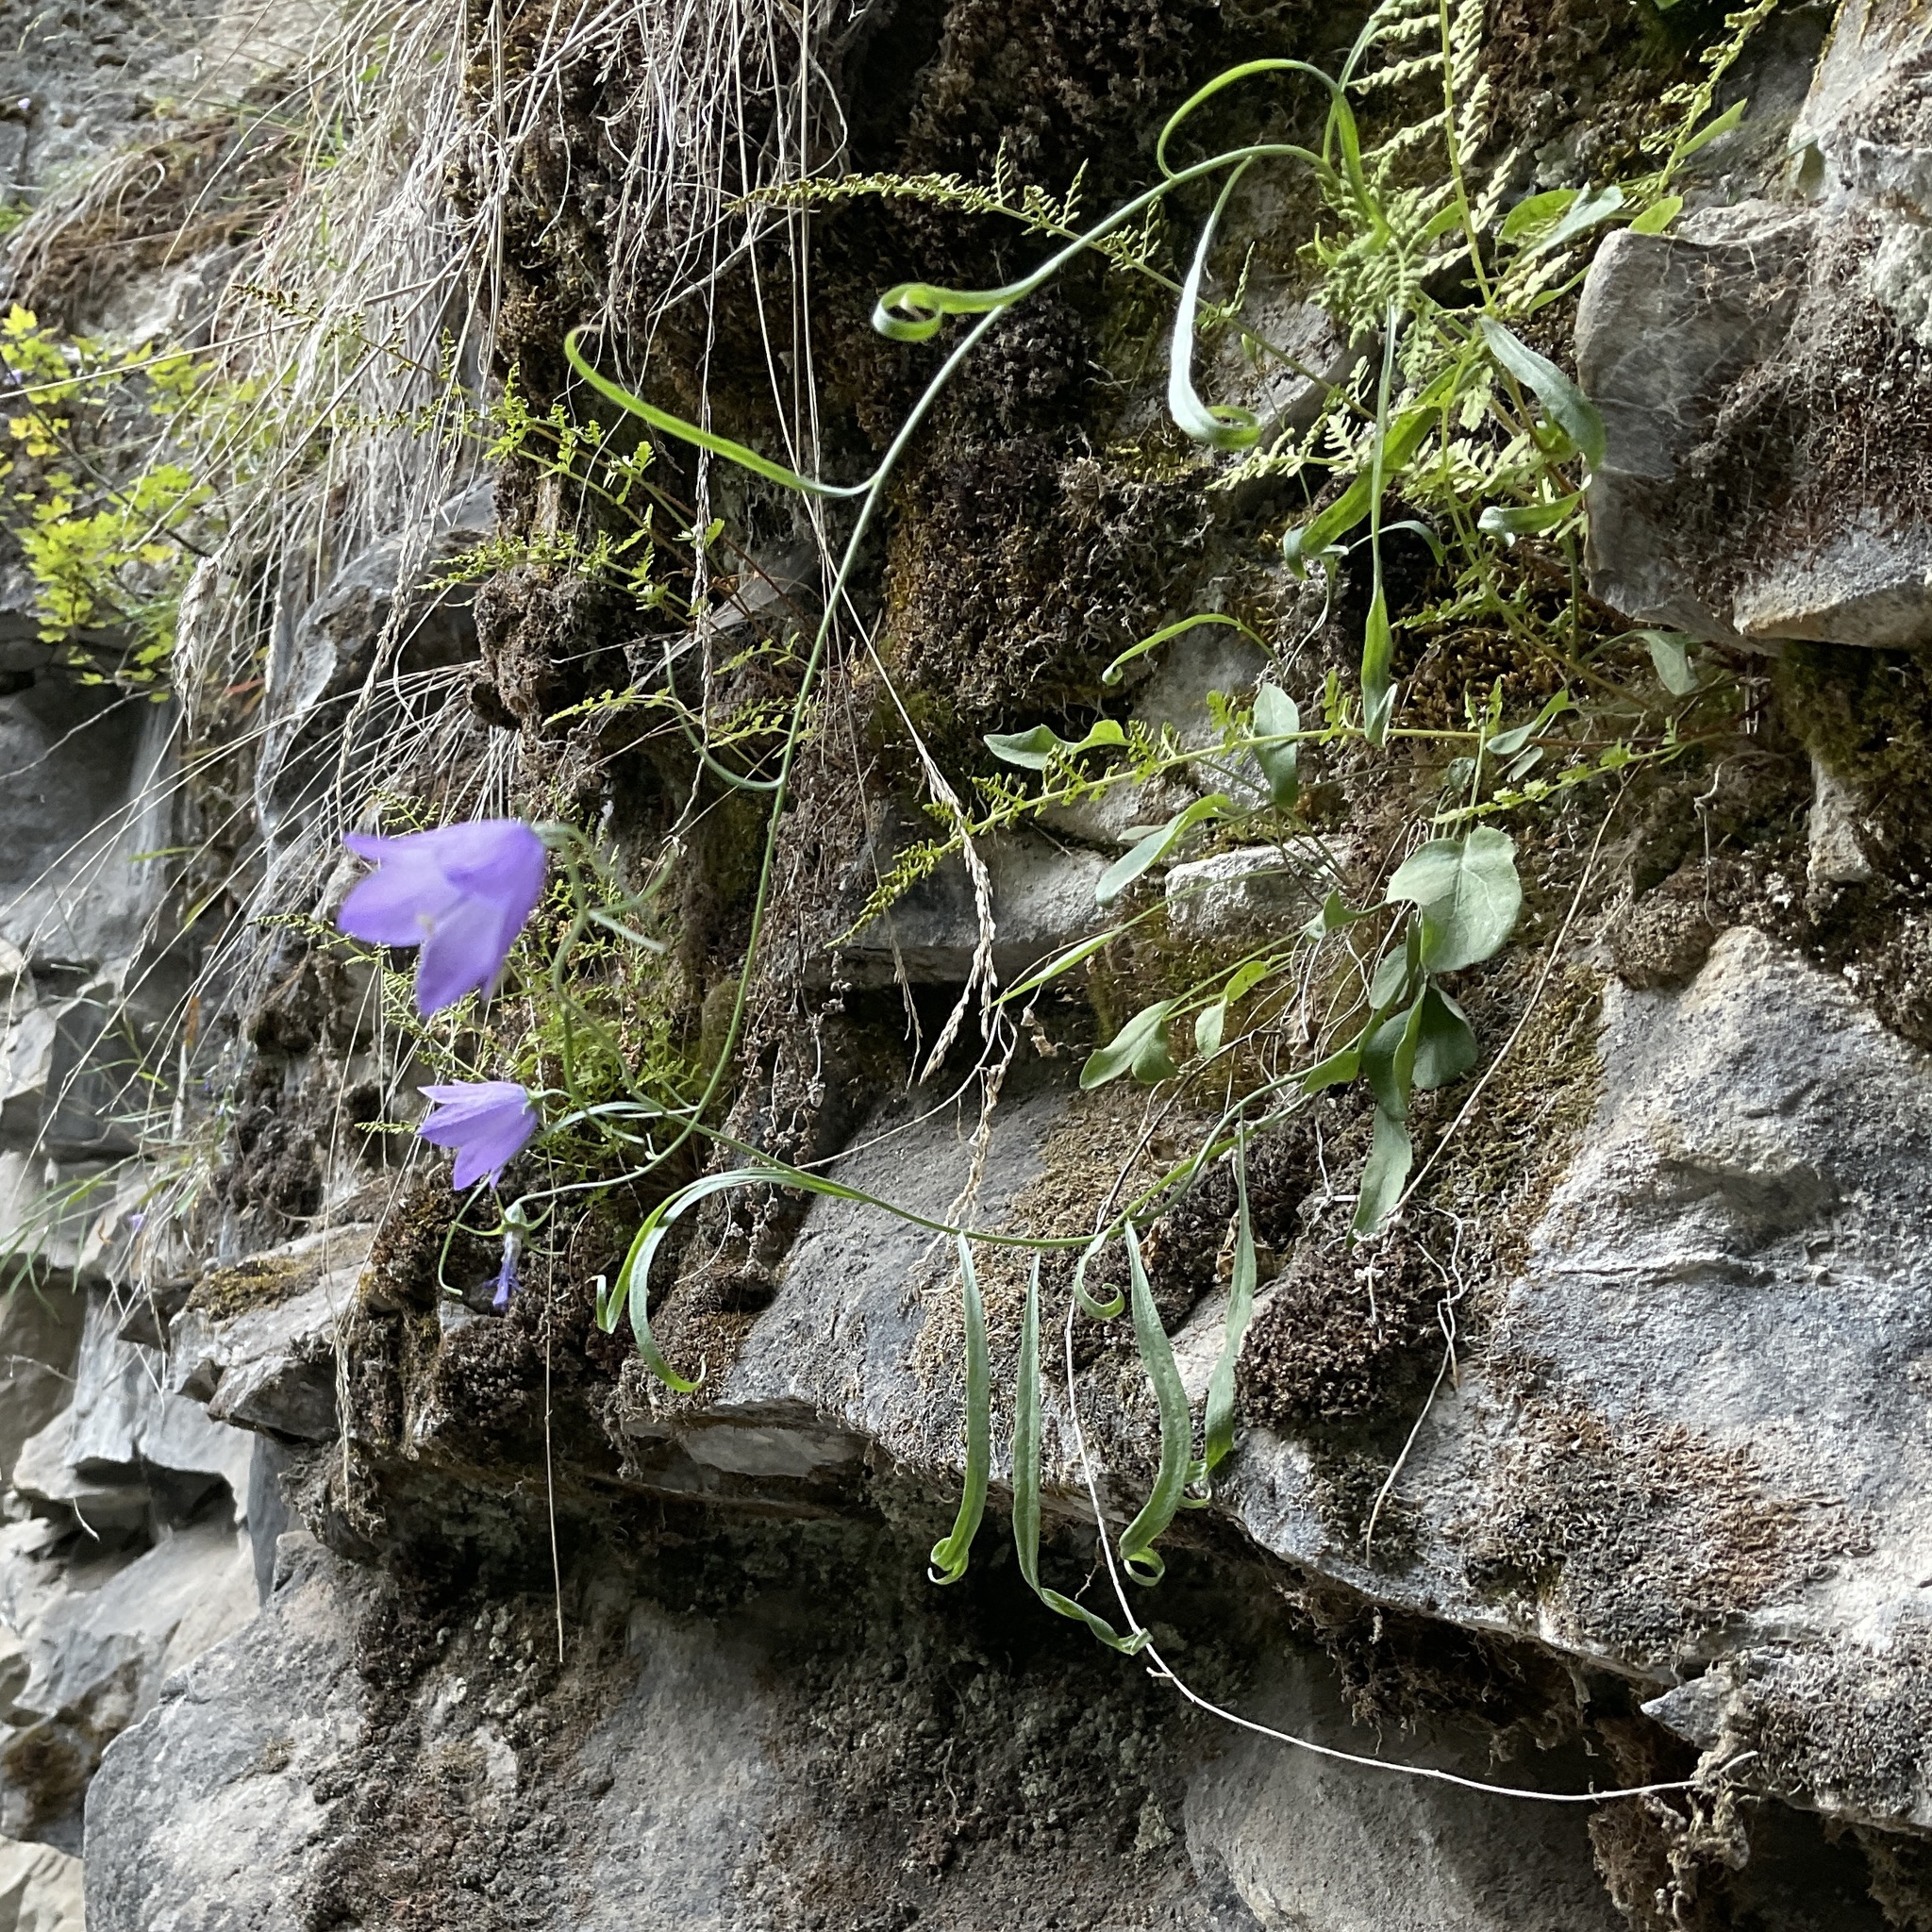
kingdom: Plantae
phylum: Tracheophyta
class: Magnoliopsida
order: Asterales
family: Campanulaceae
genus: Campanula
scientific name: Campanula alaskana
